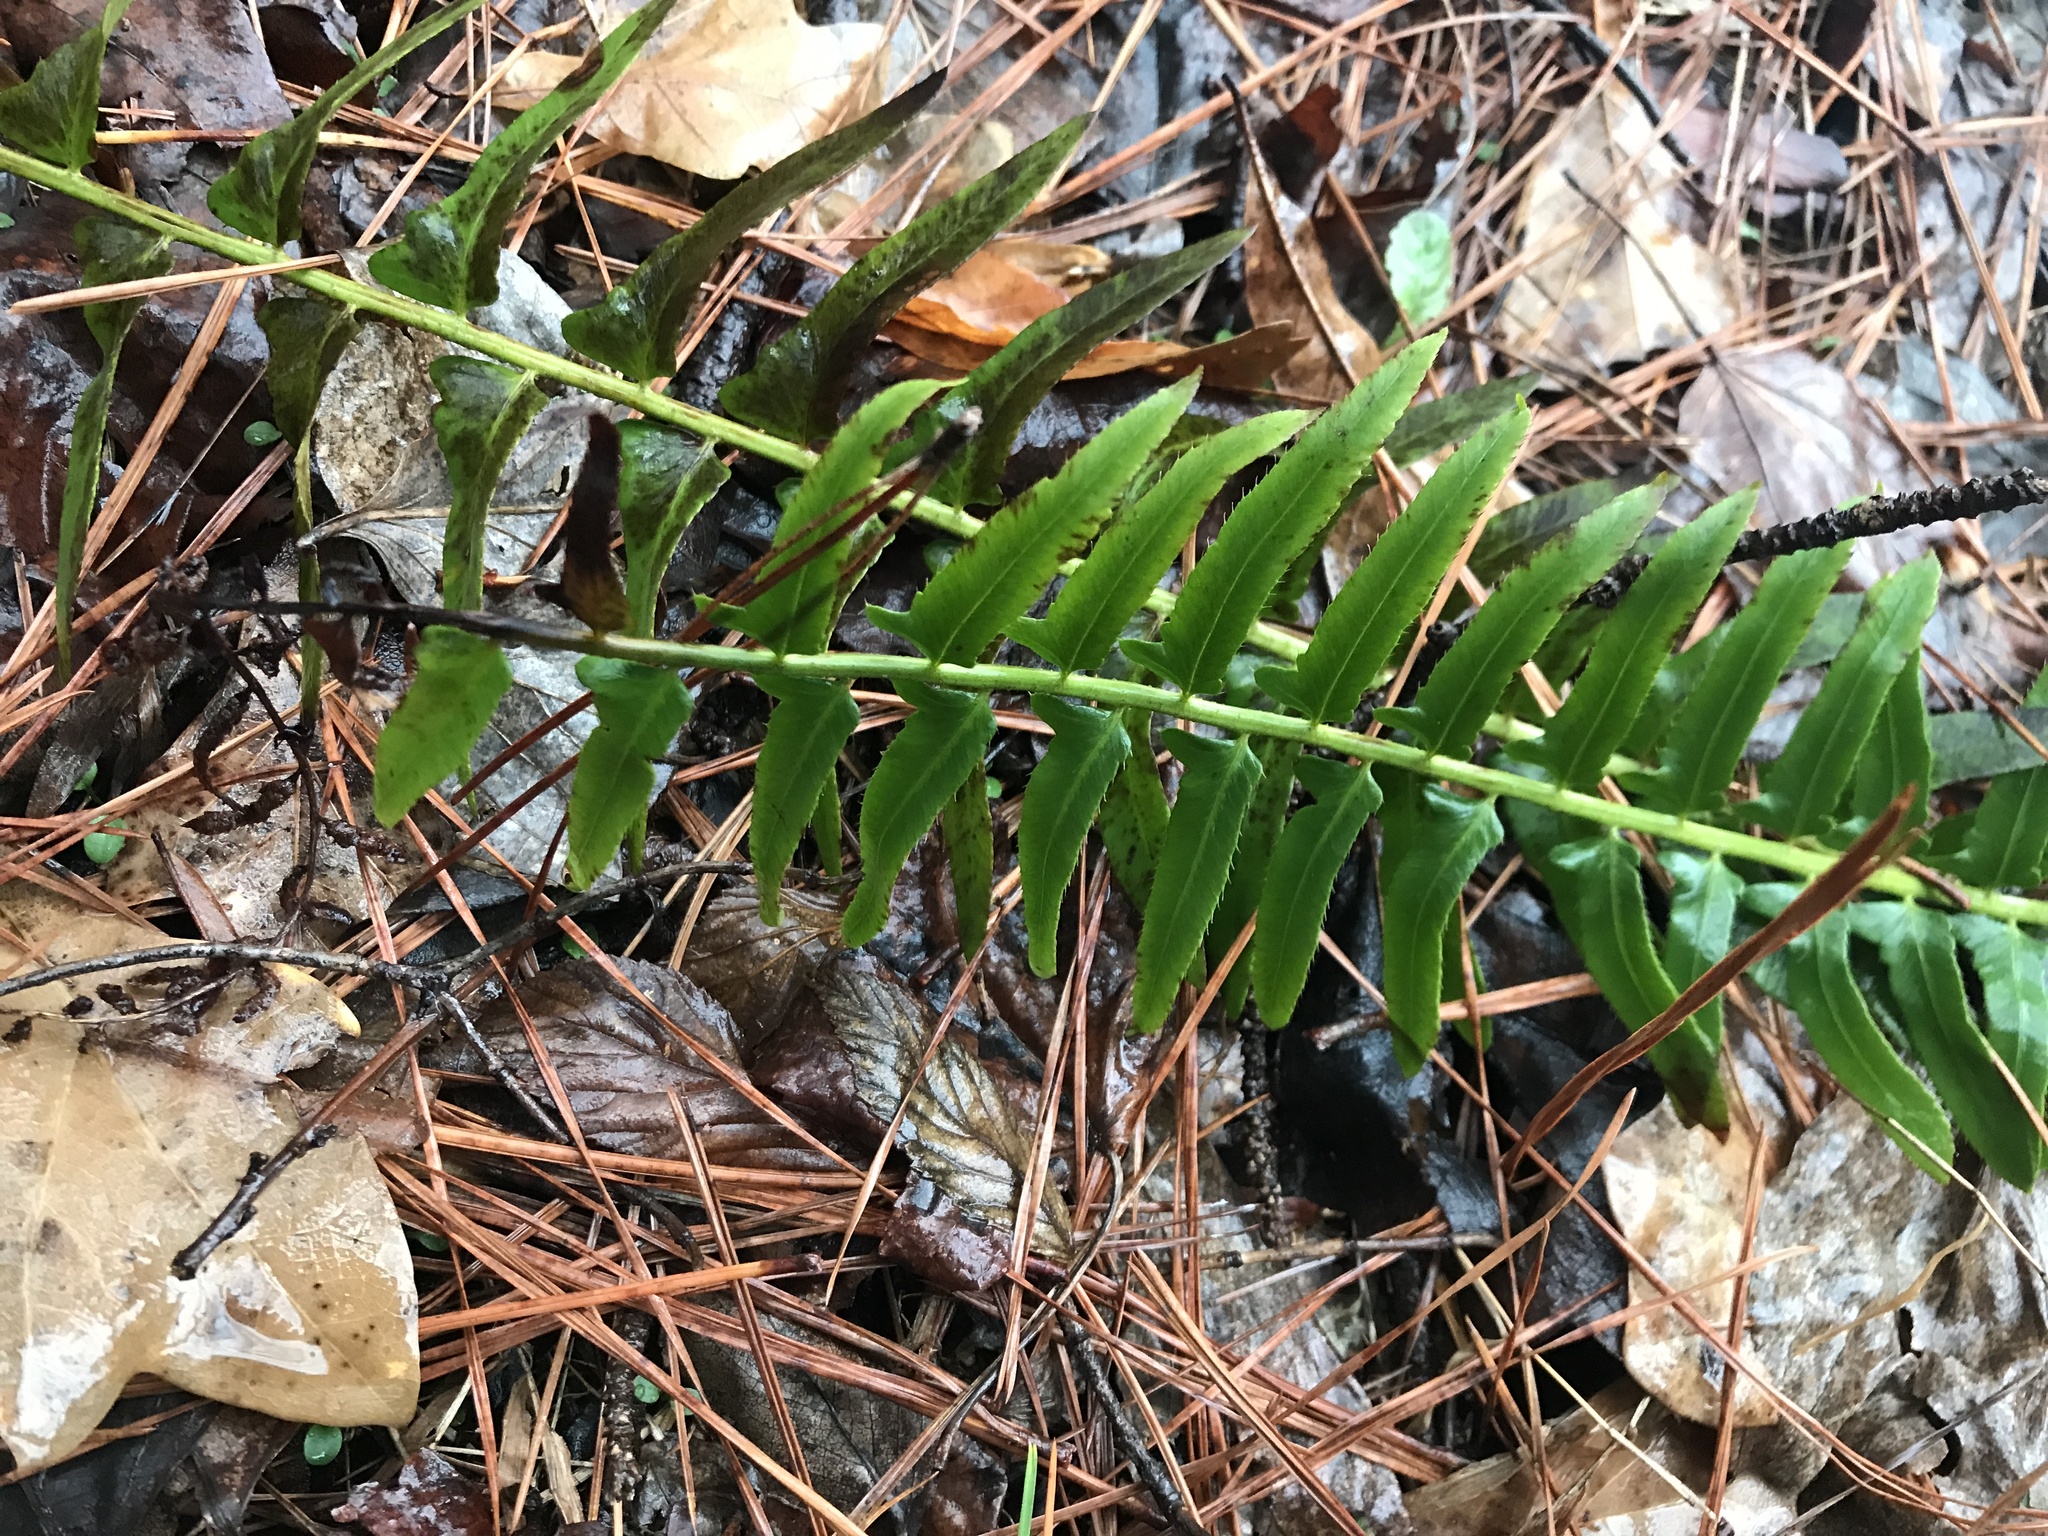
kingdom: Plantae
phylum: Tracheophyta
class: Polypodiopsida
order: Polypodiales
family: Dryopteridaceae
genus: Polystichum
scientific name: Polystichum acrostichoides
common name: Christmas fern
